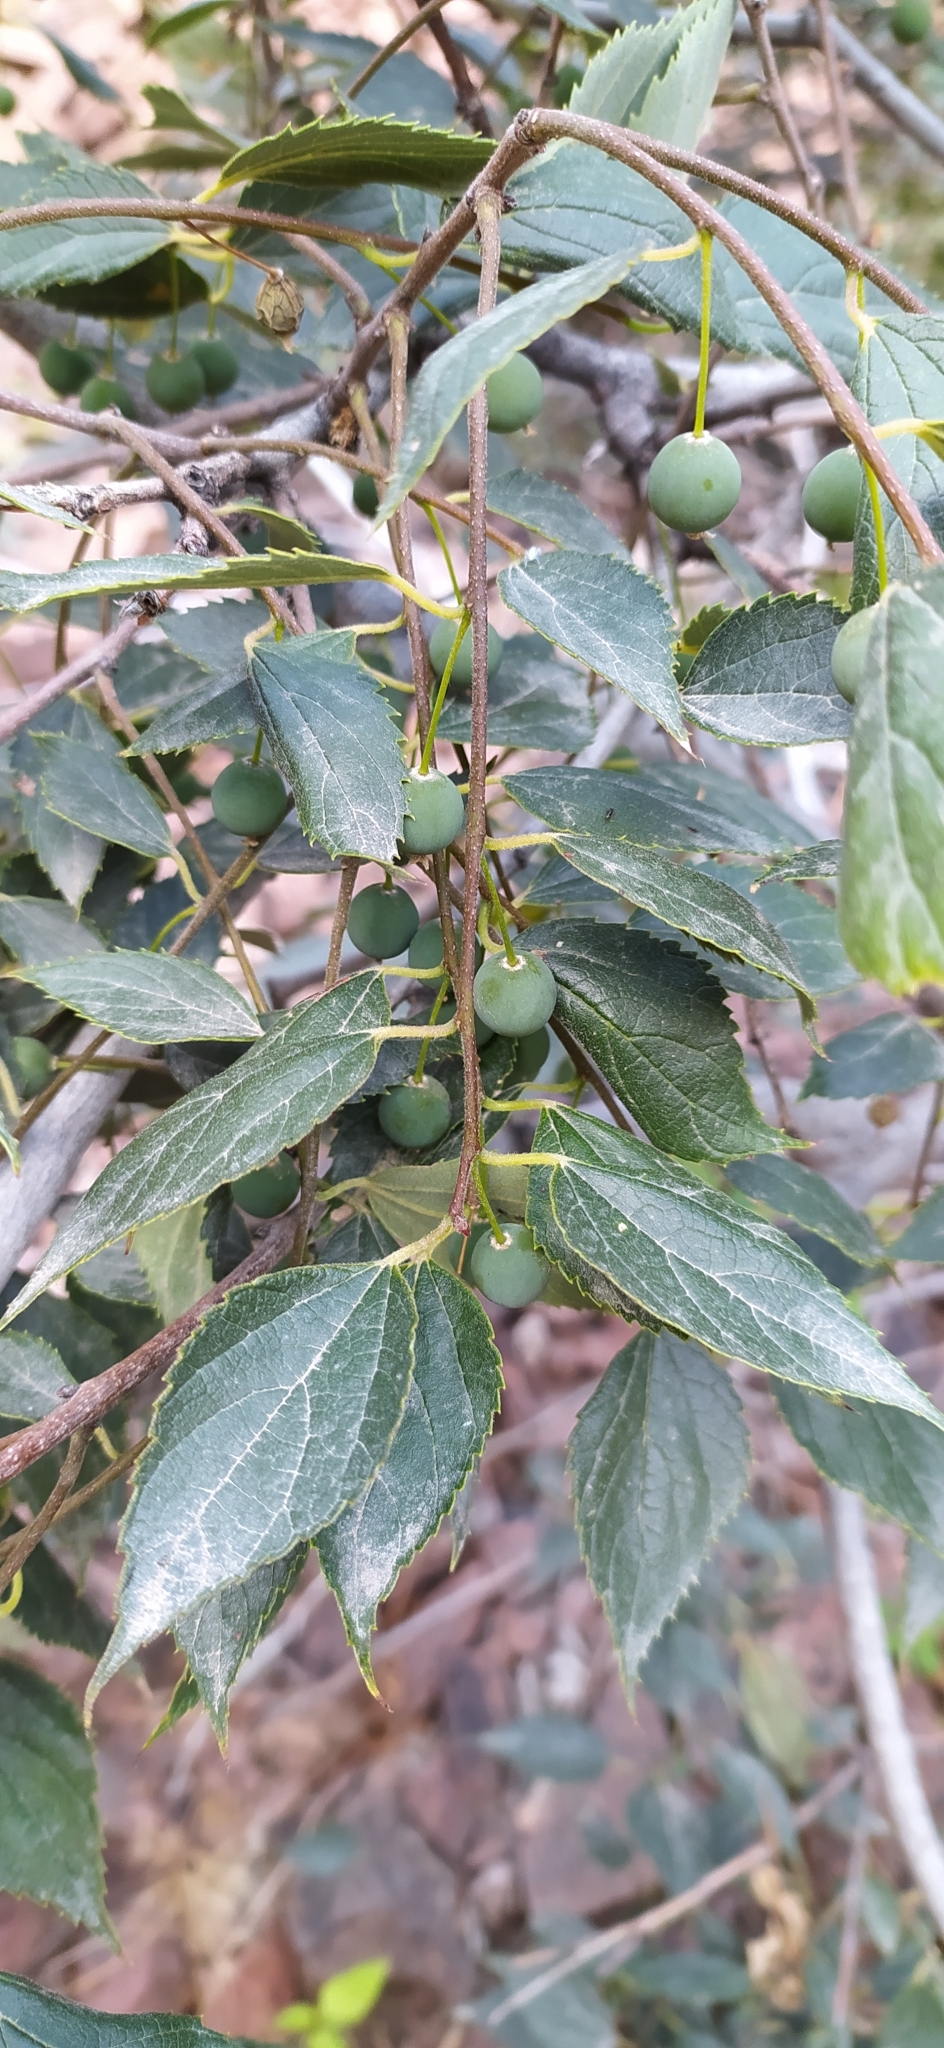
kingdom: Plantae
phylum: Tracheophyta
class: Magnoliopsida
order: Rosales
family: Cannabaceae
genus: Celtis
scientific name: Celtis australis
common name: European hackberry
